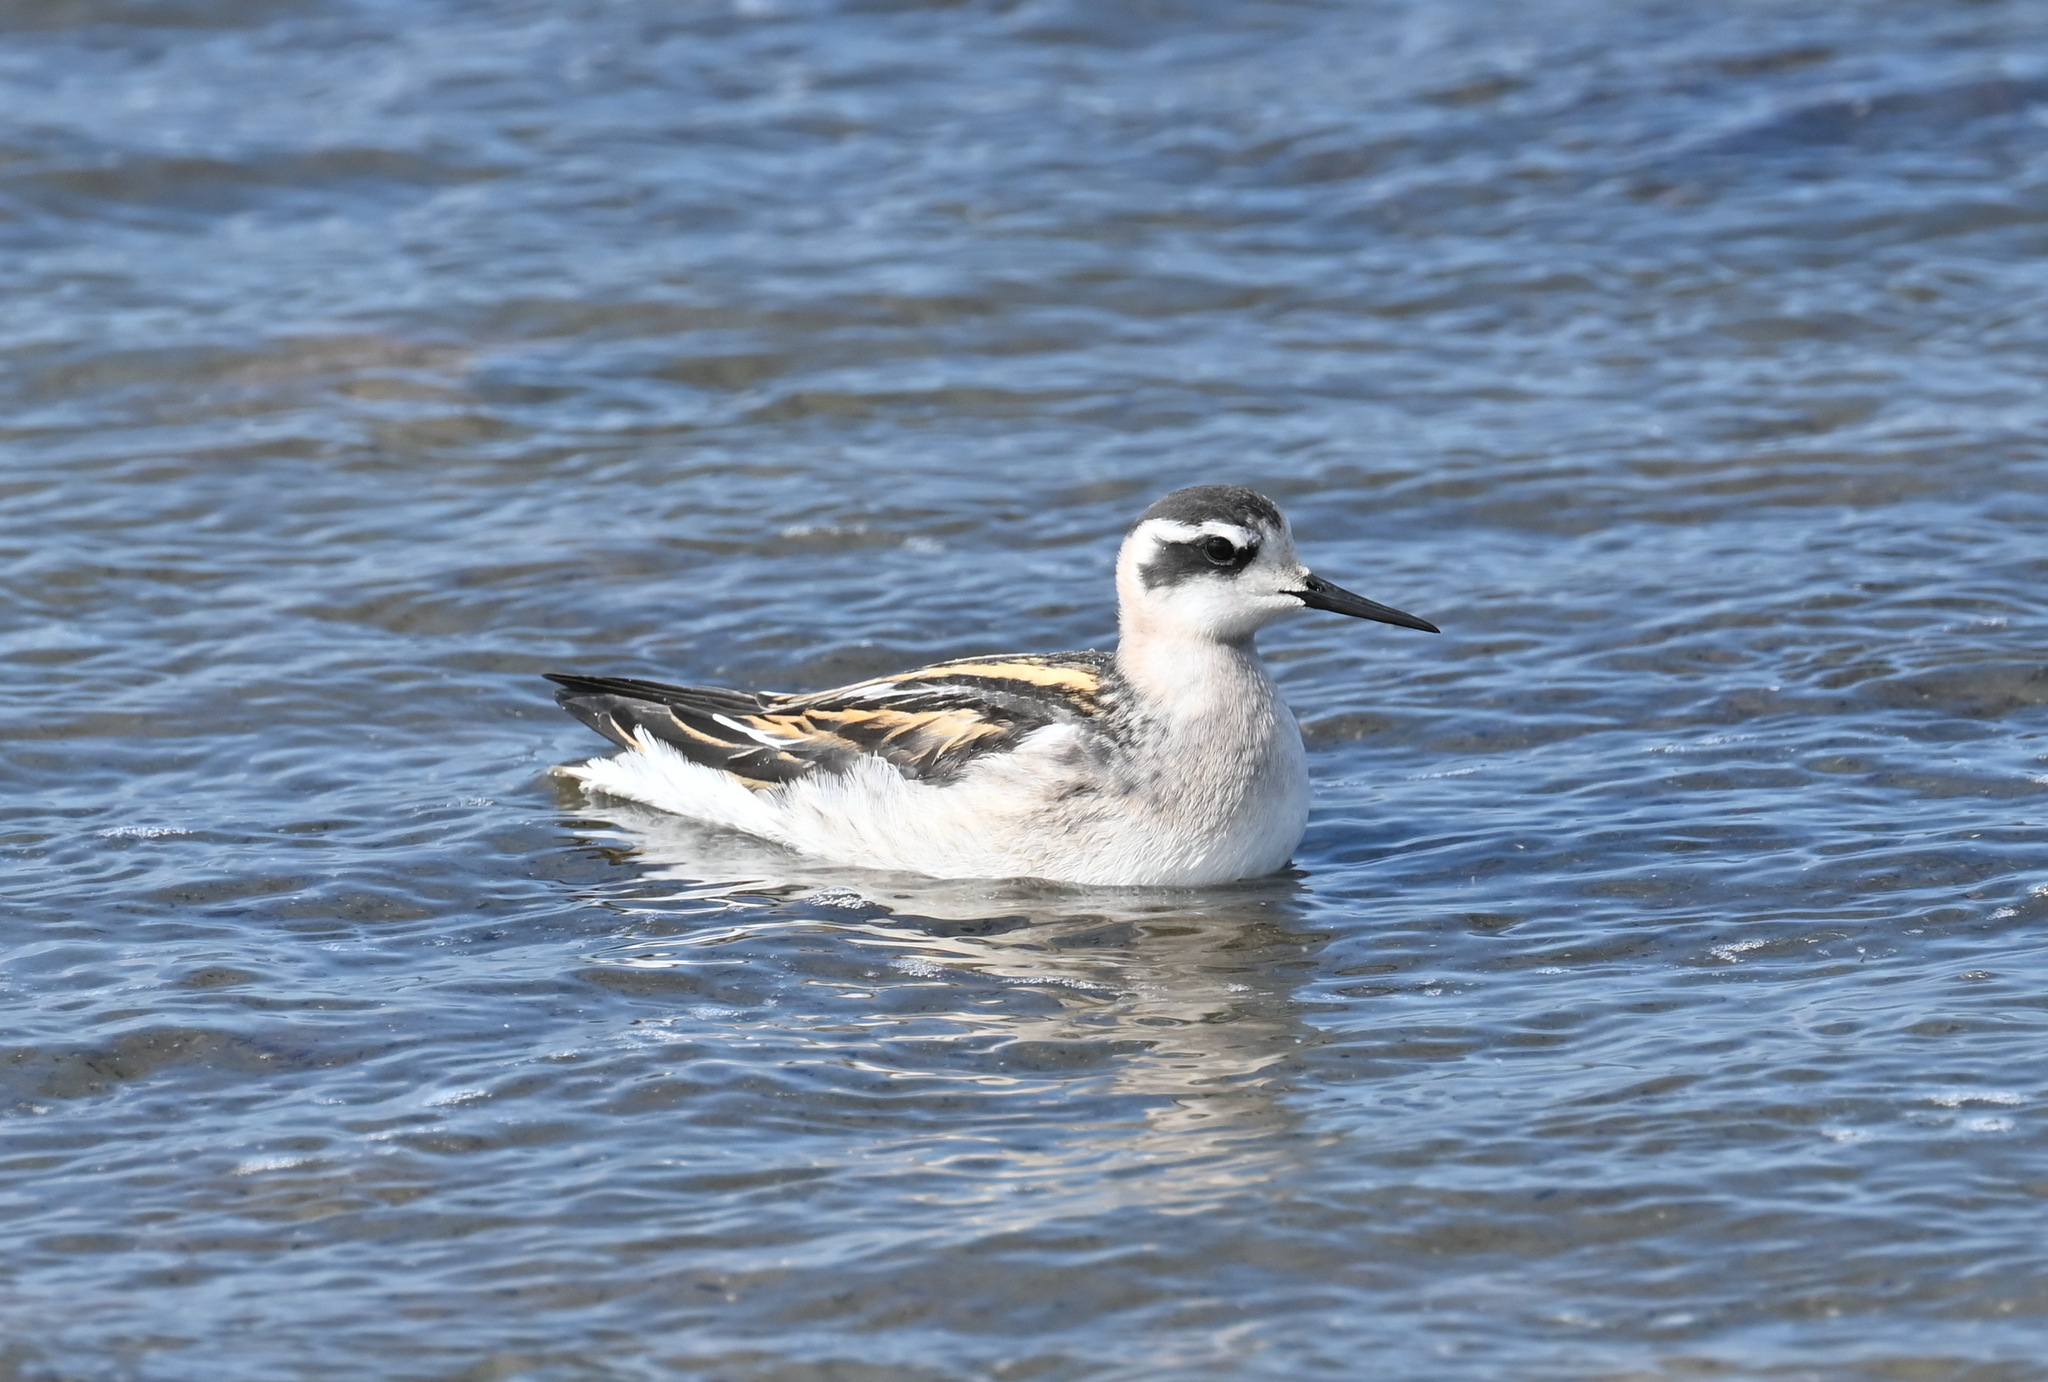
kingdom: Animalia
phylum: Chordata
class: Aves
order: Charadriiformes
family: Scolopacidae
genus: Phalaropus
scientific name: Phalaropus lobatus
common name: Red-necked phalarope
